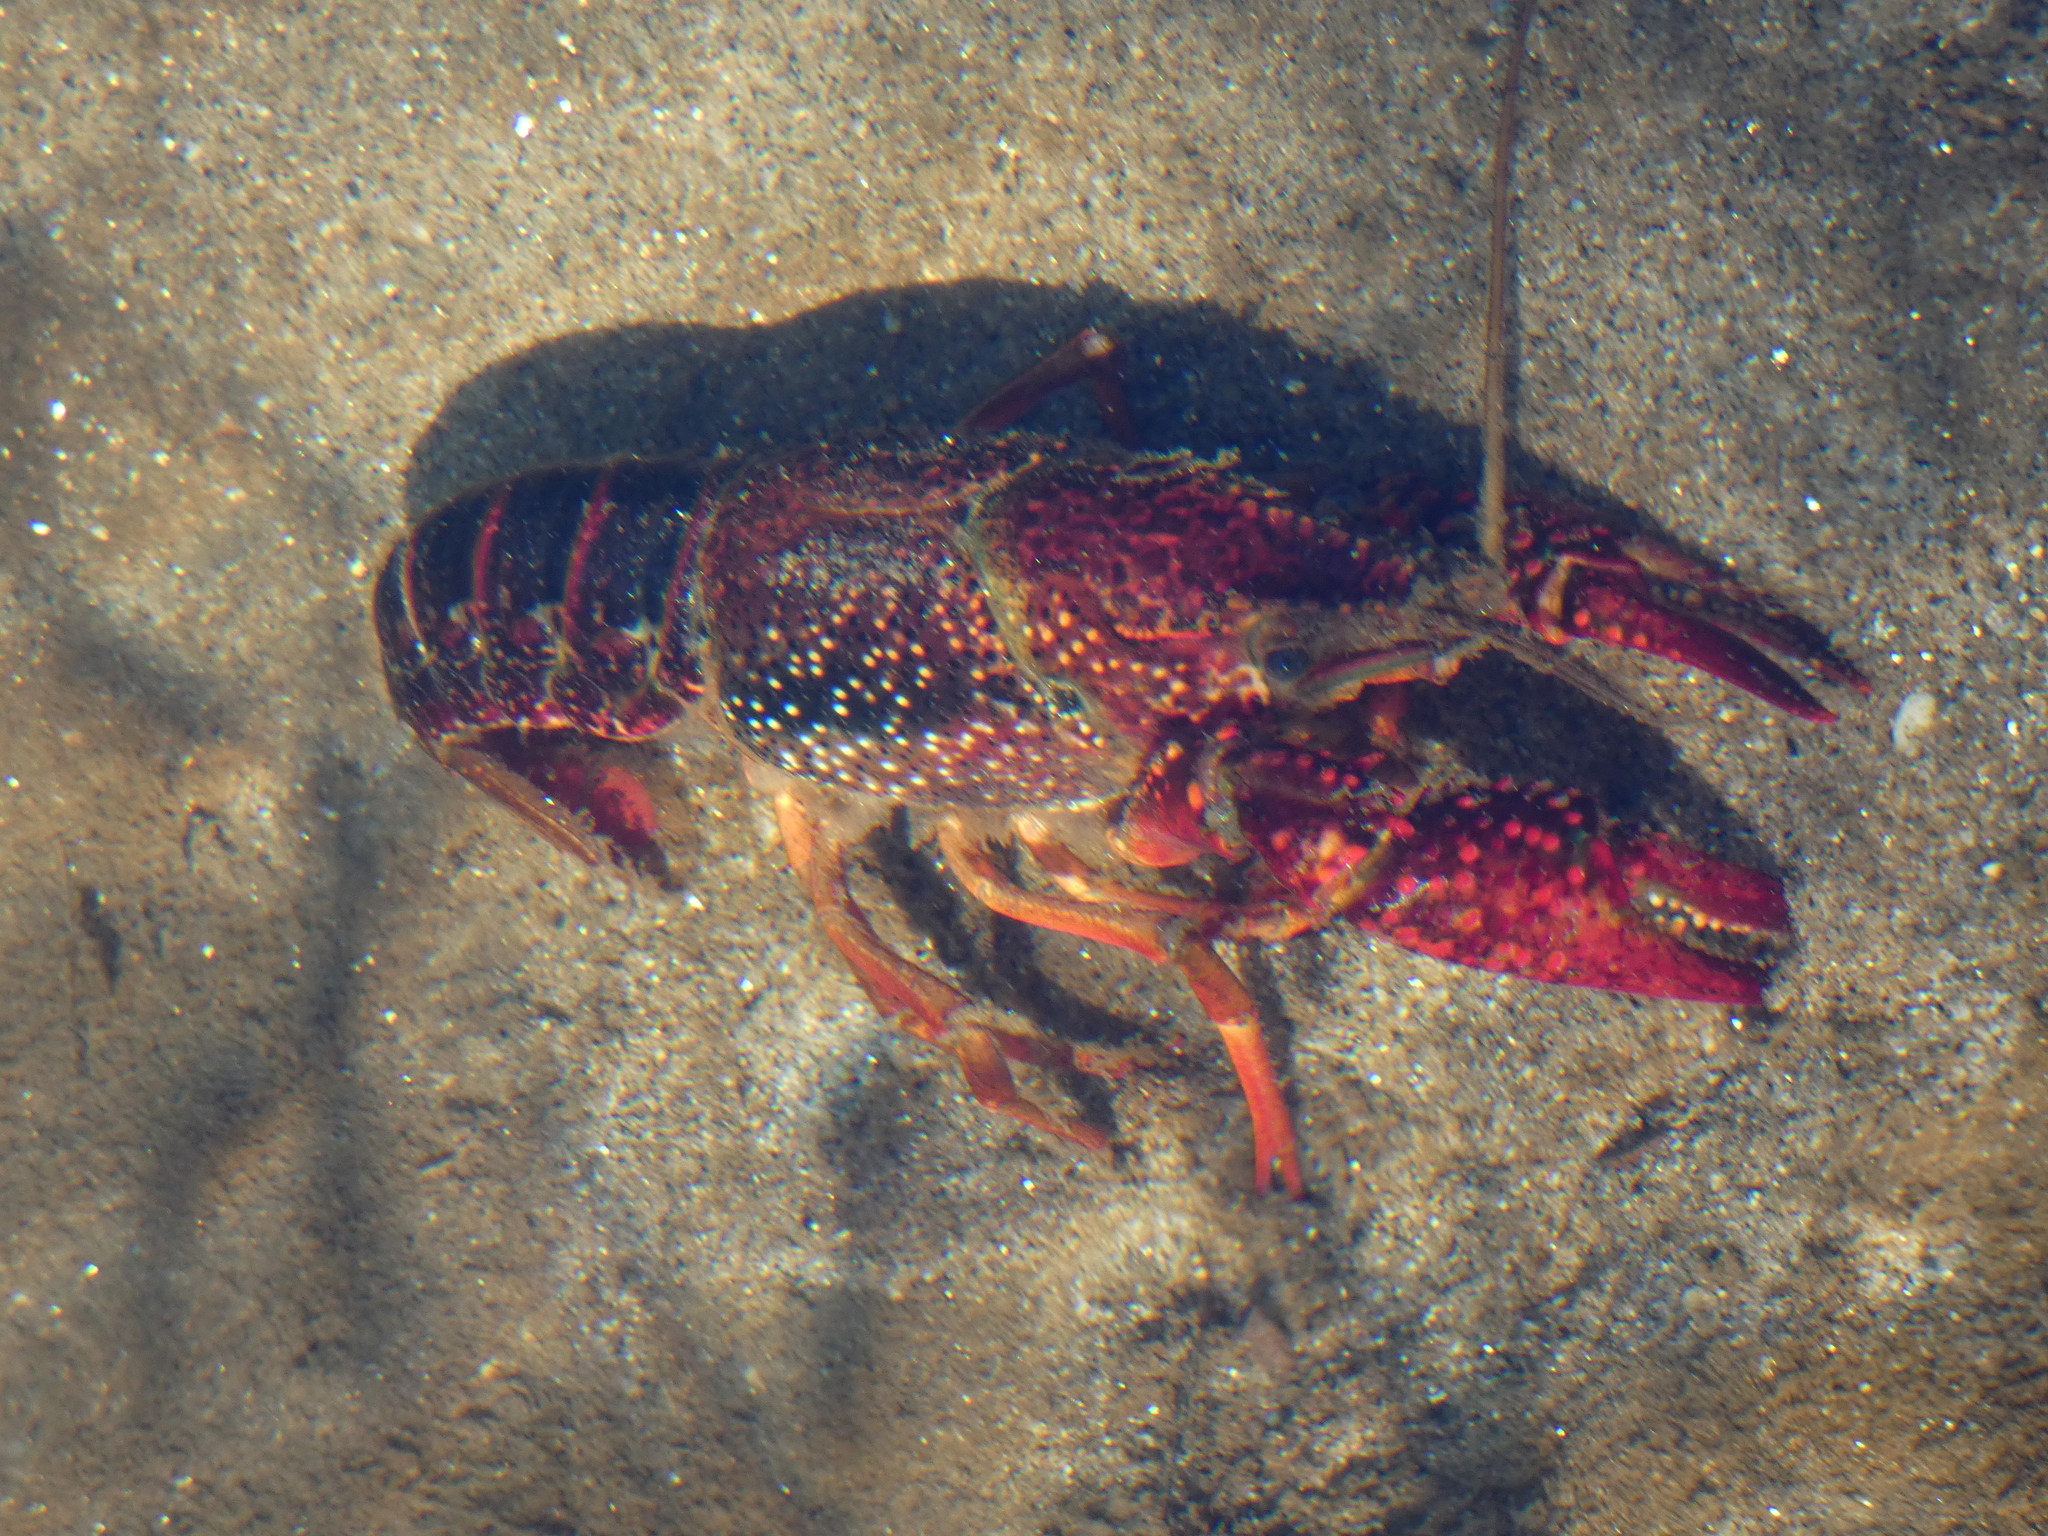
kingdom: Animalia
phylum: Arthropoda
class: Malacostraca
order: Decapoda
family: Cambaridae
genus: Procambarus
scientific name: Procambarus clarkii
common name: Red swamp crayfish
